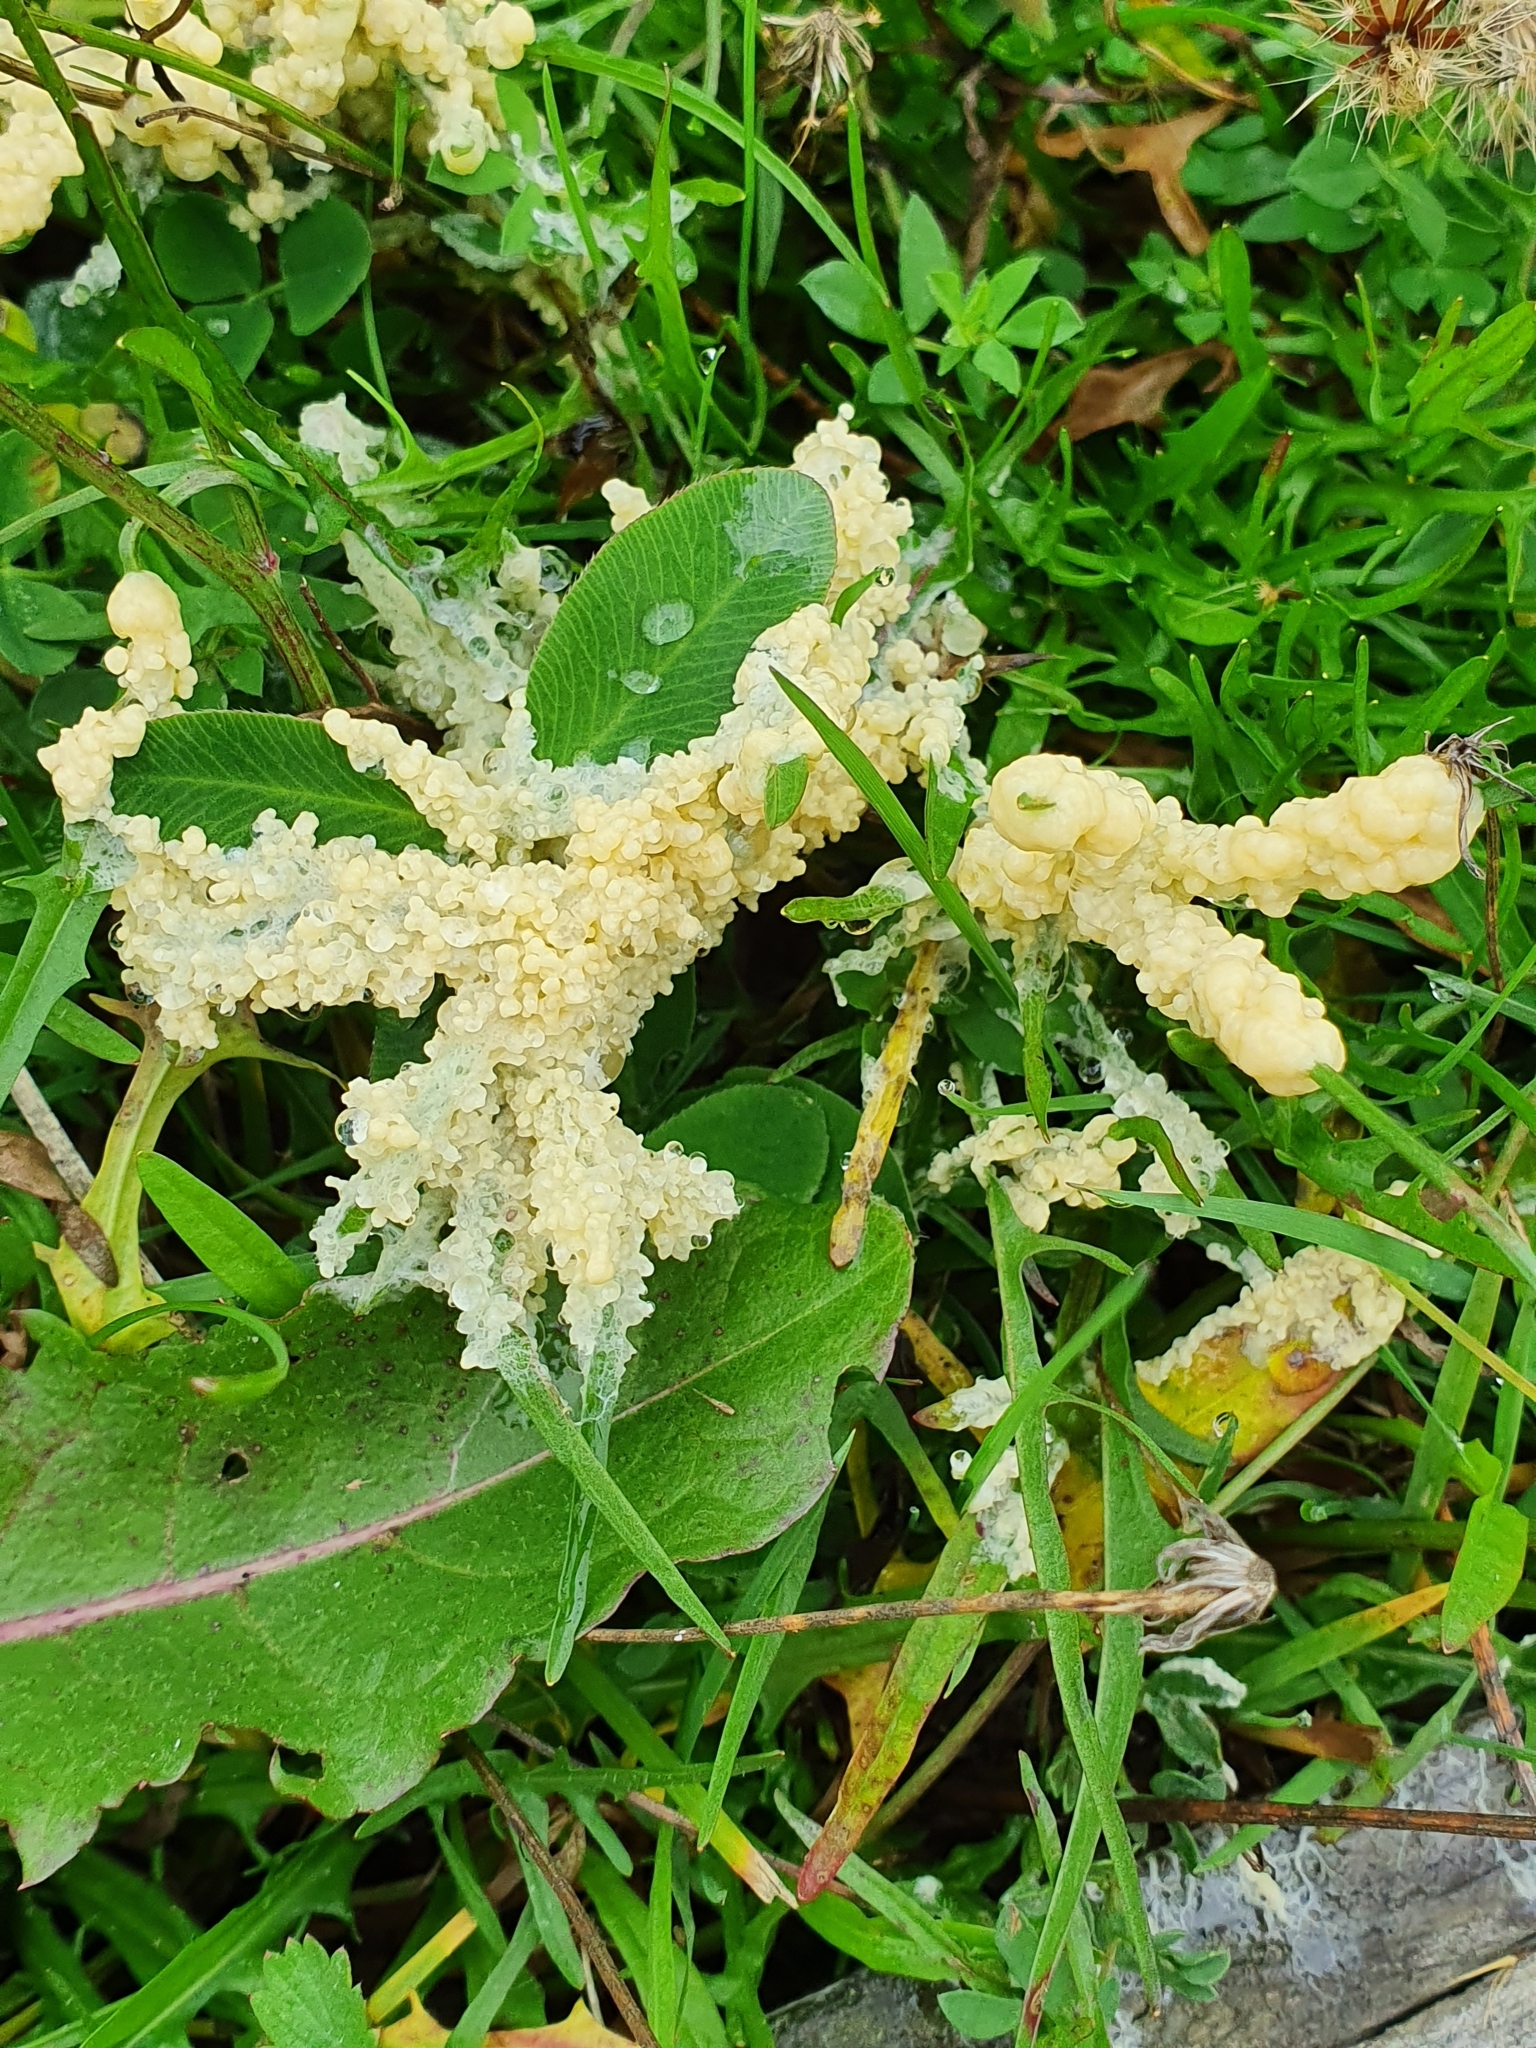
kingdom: Protozoa
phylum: Mycetozoa
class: Myxomycetes
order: Physarales
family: Physaraceae
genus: Didymium
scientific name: Didymium
